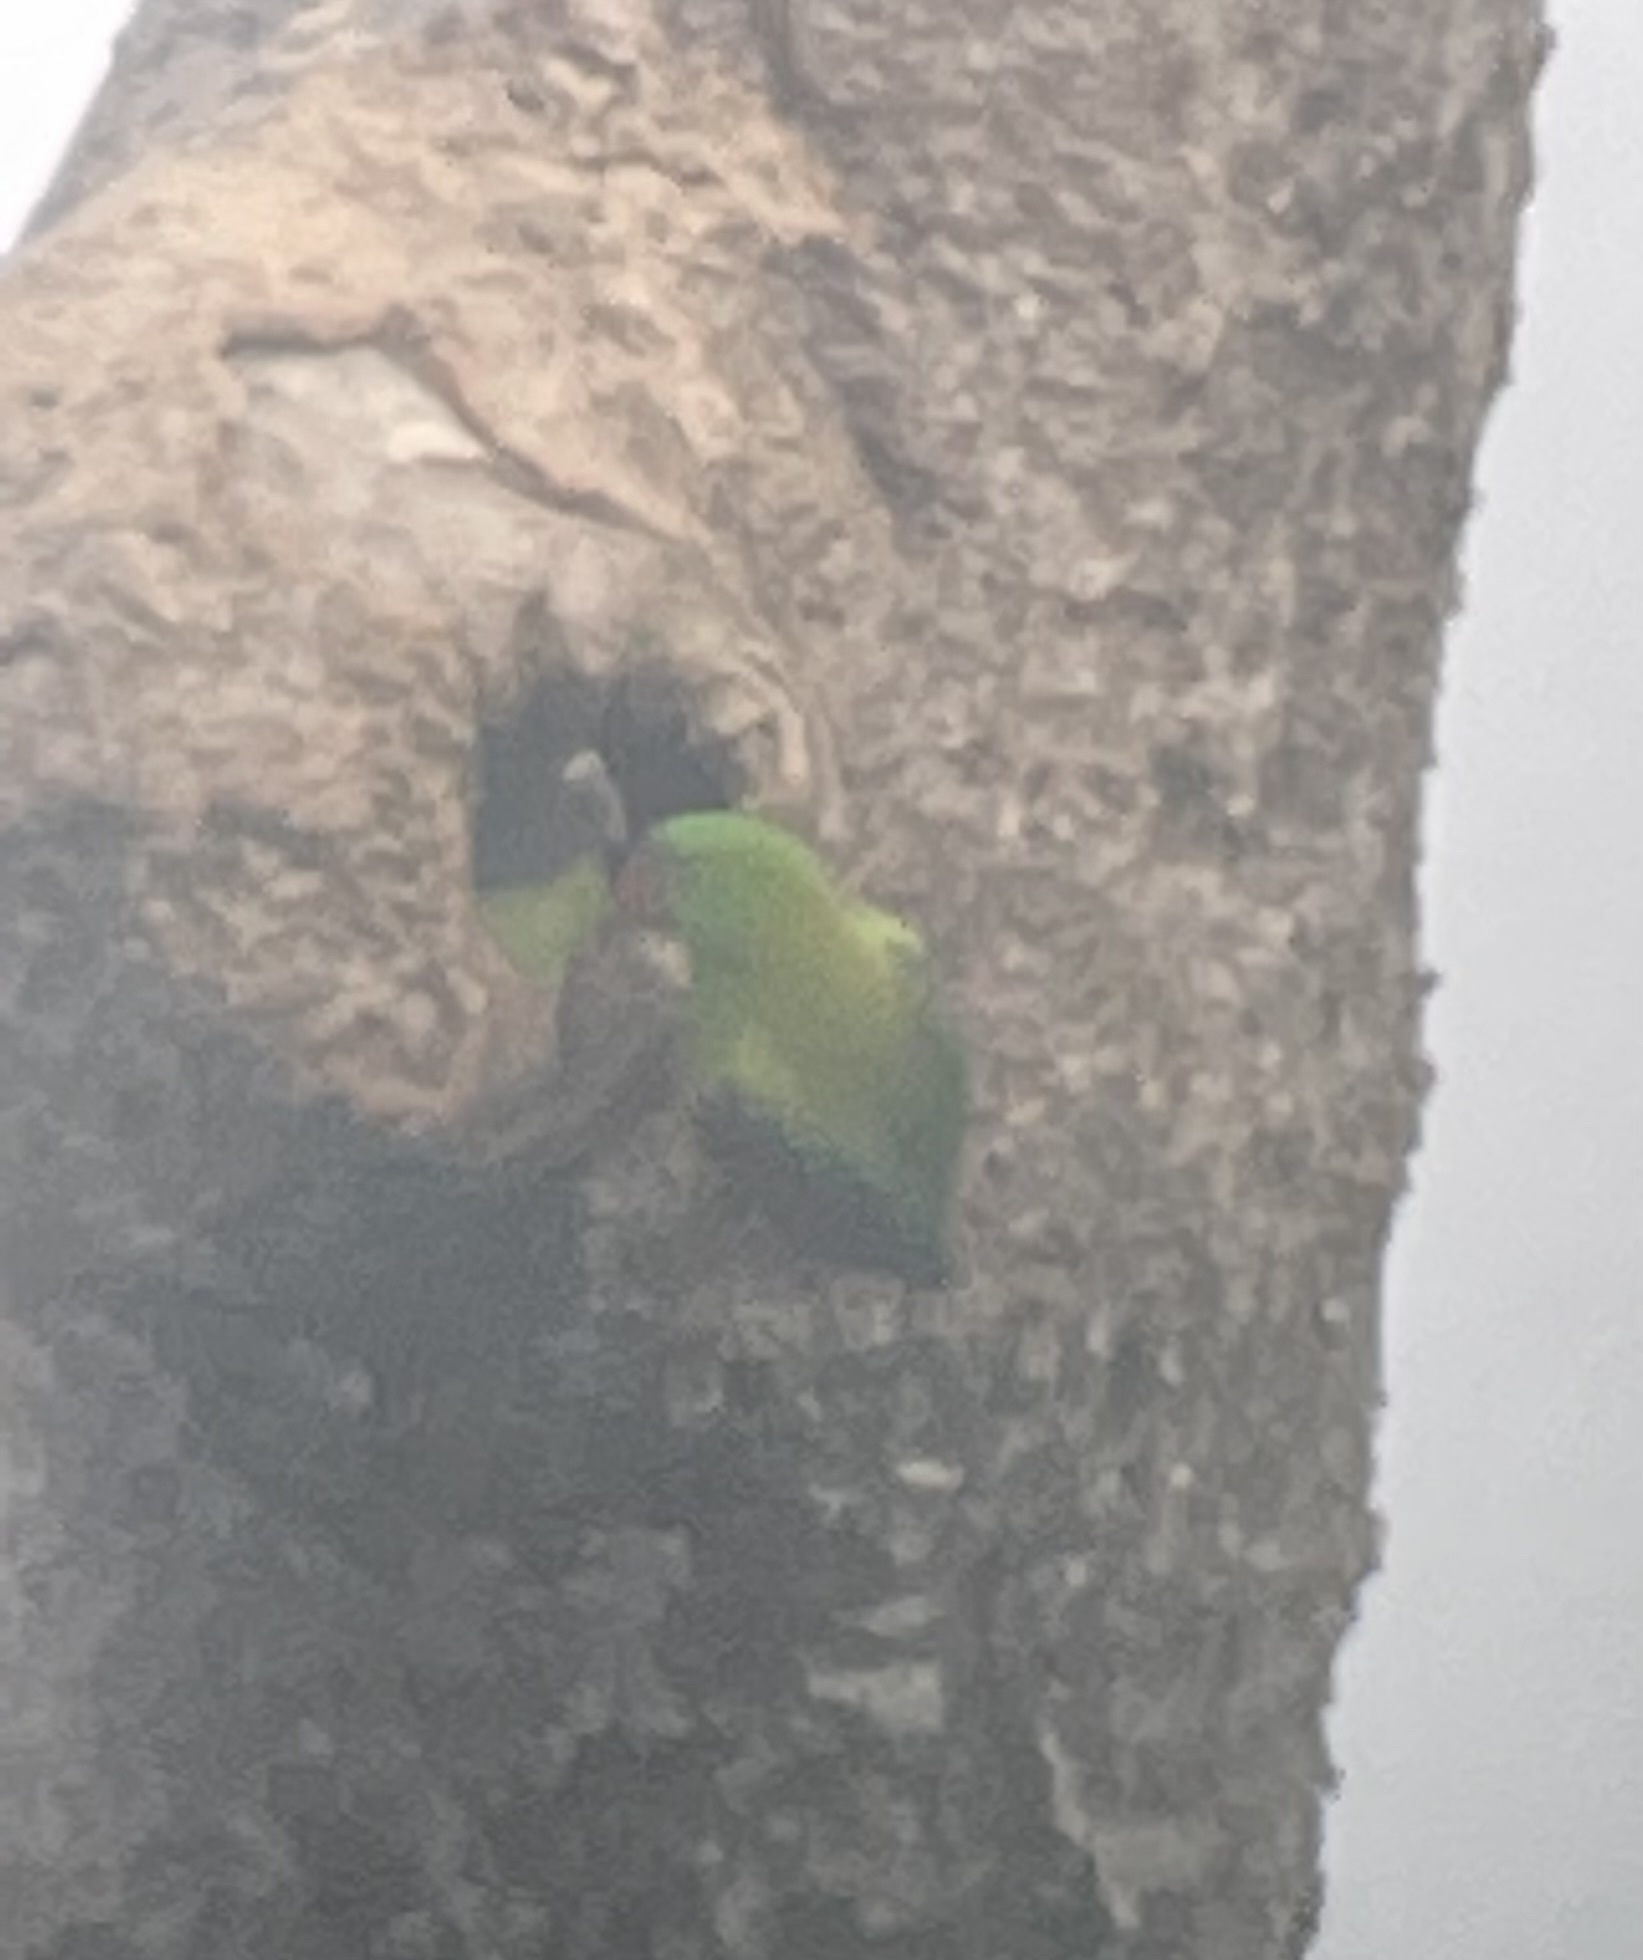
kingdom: Animalia
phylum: Chordata
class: Aves
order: Psittaciformes
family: Psittacidae
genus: Tanygnathus
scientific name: Tanygnathus sumatranus
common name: Blue-backed parrot
